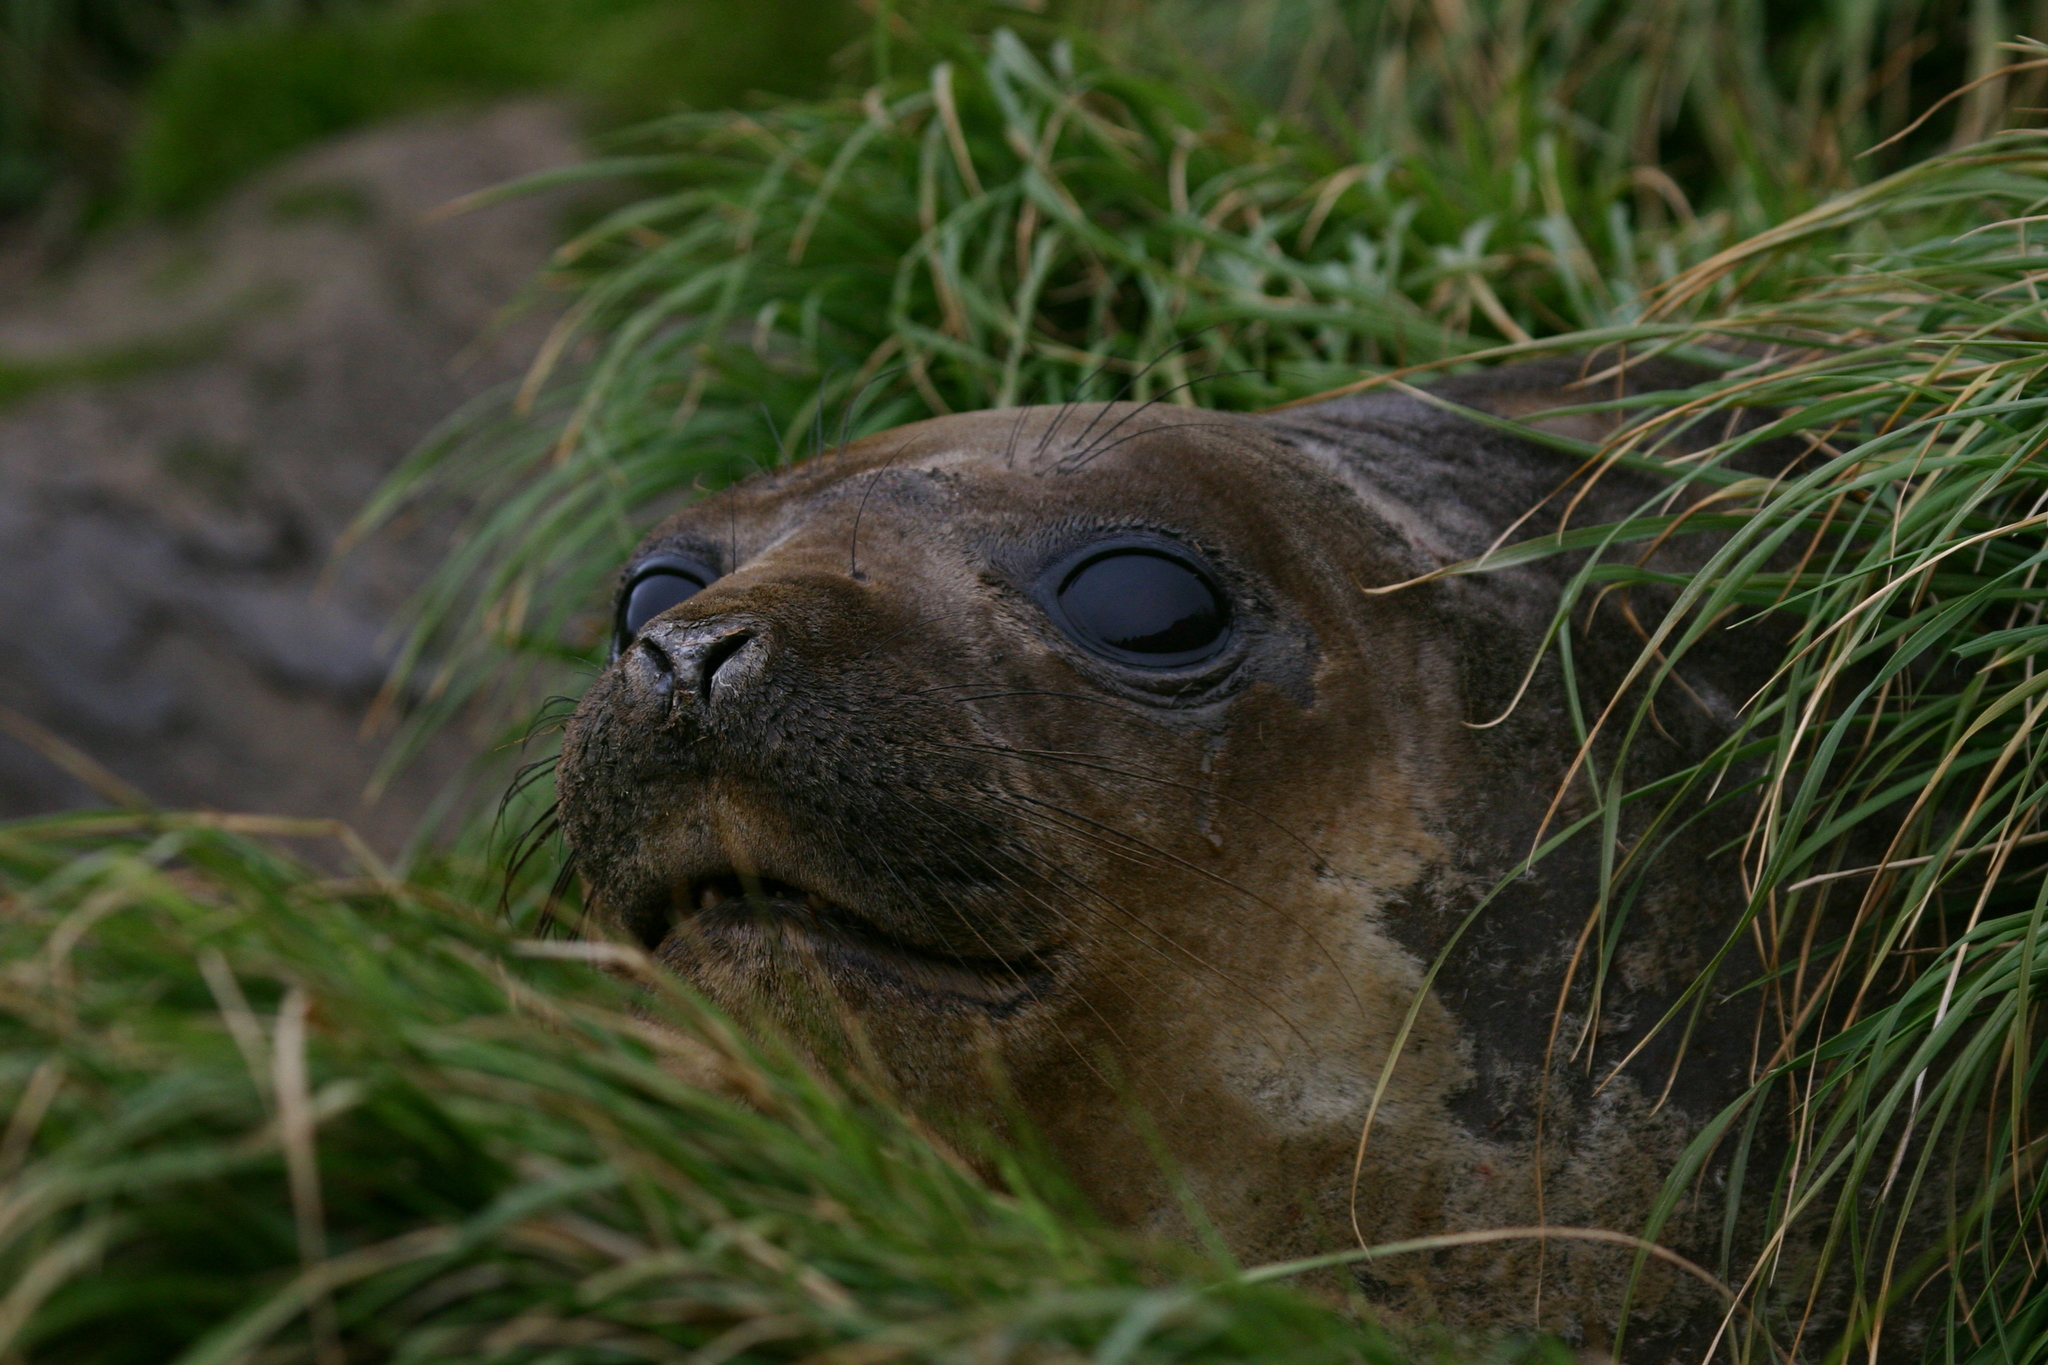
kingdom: Animalia
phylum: Chordata
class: Mammalia
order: Carnivora
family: Phocidae
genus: Mirounga
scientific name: Mirounga leonina
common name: Southern elephant seal
